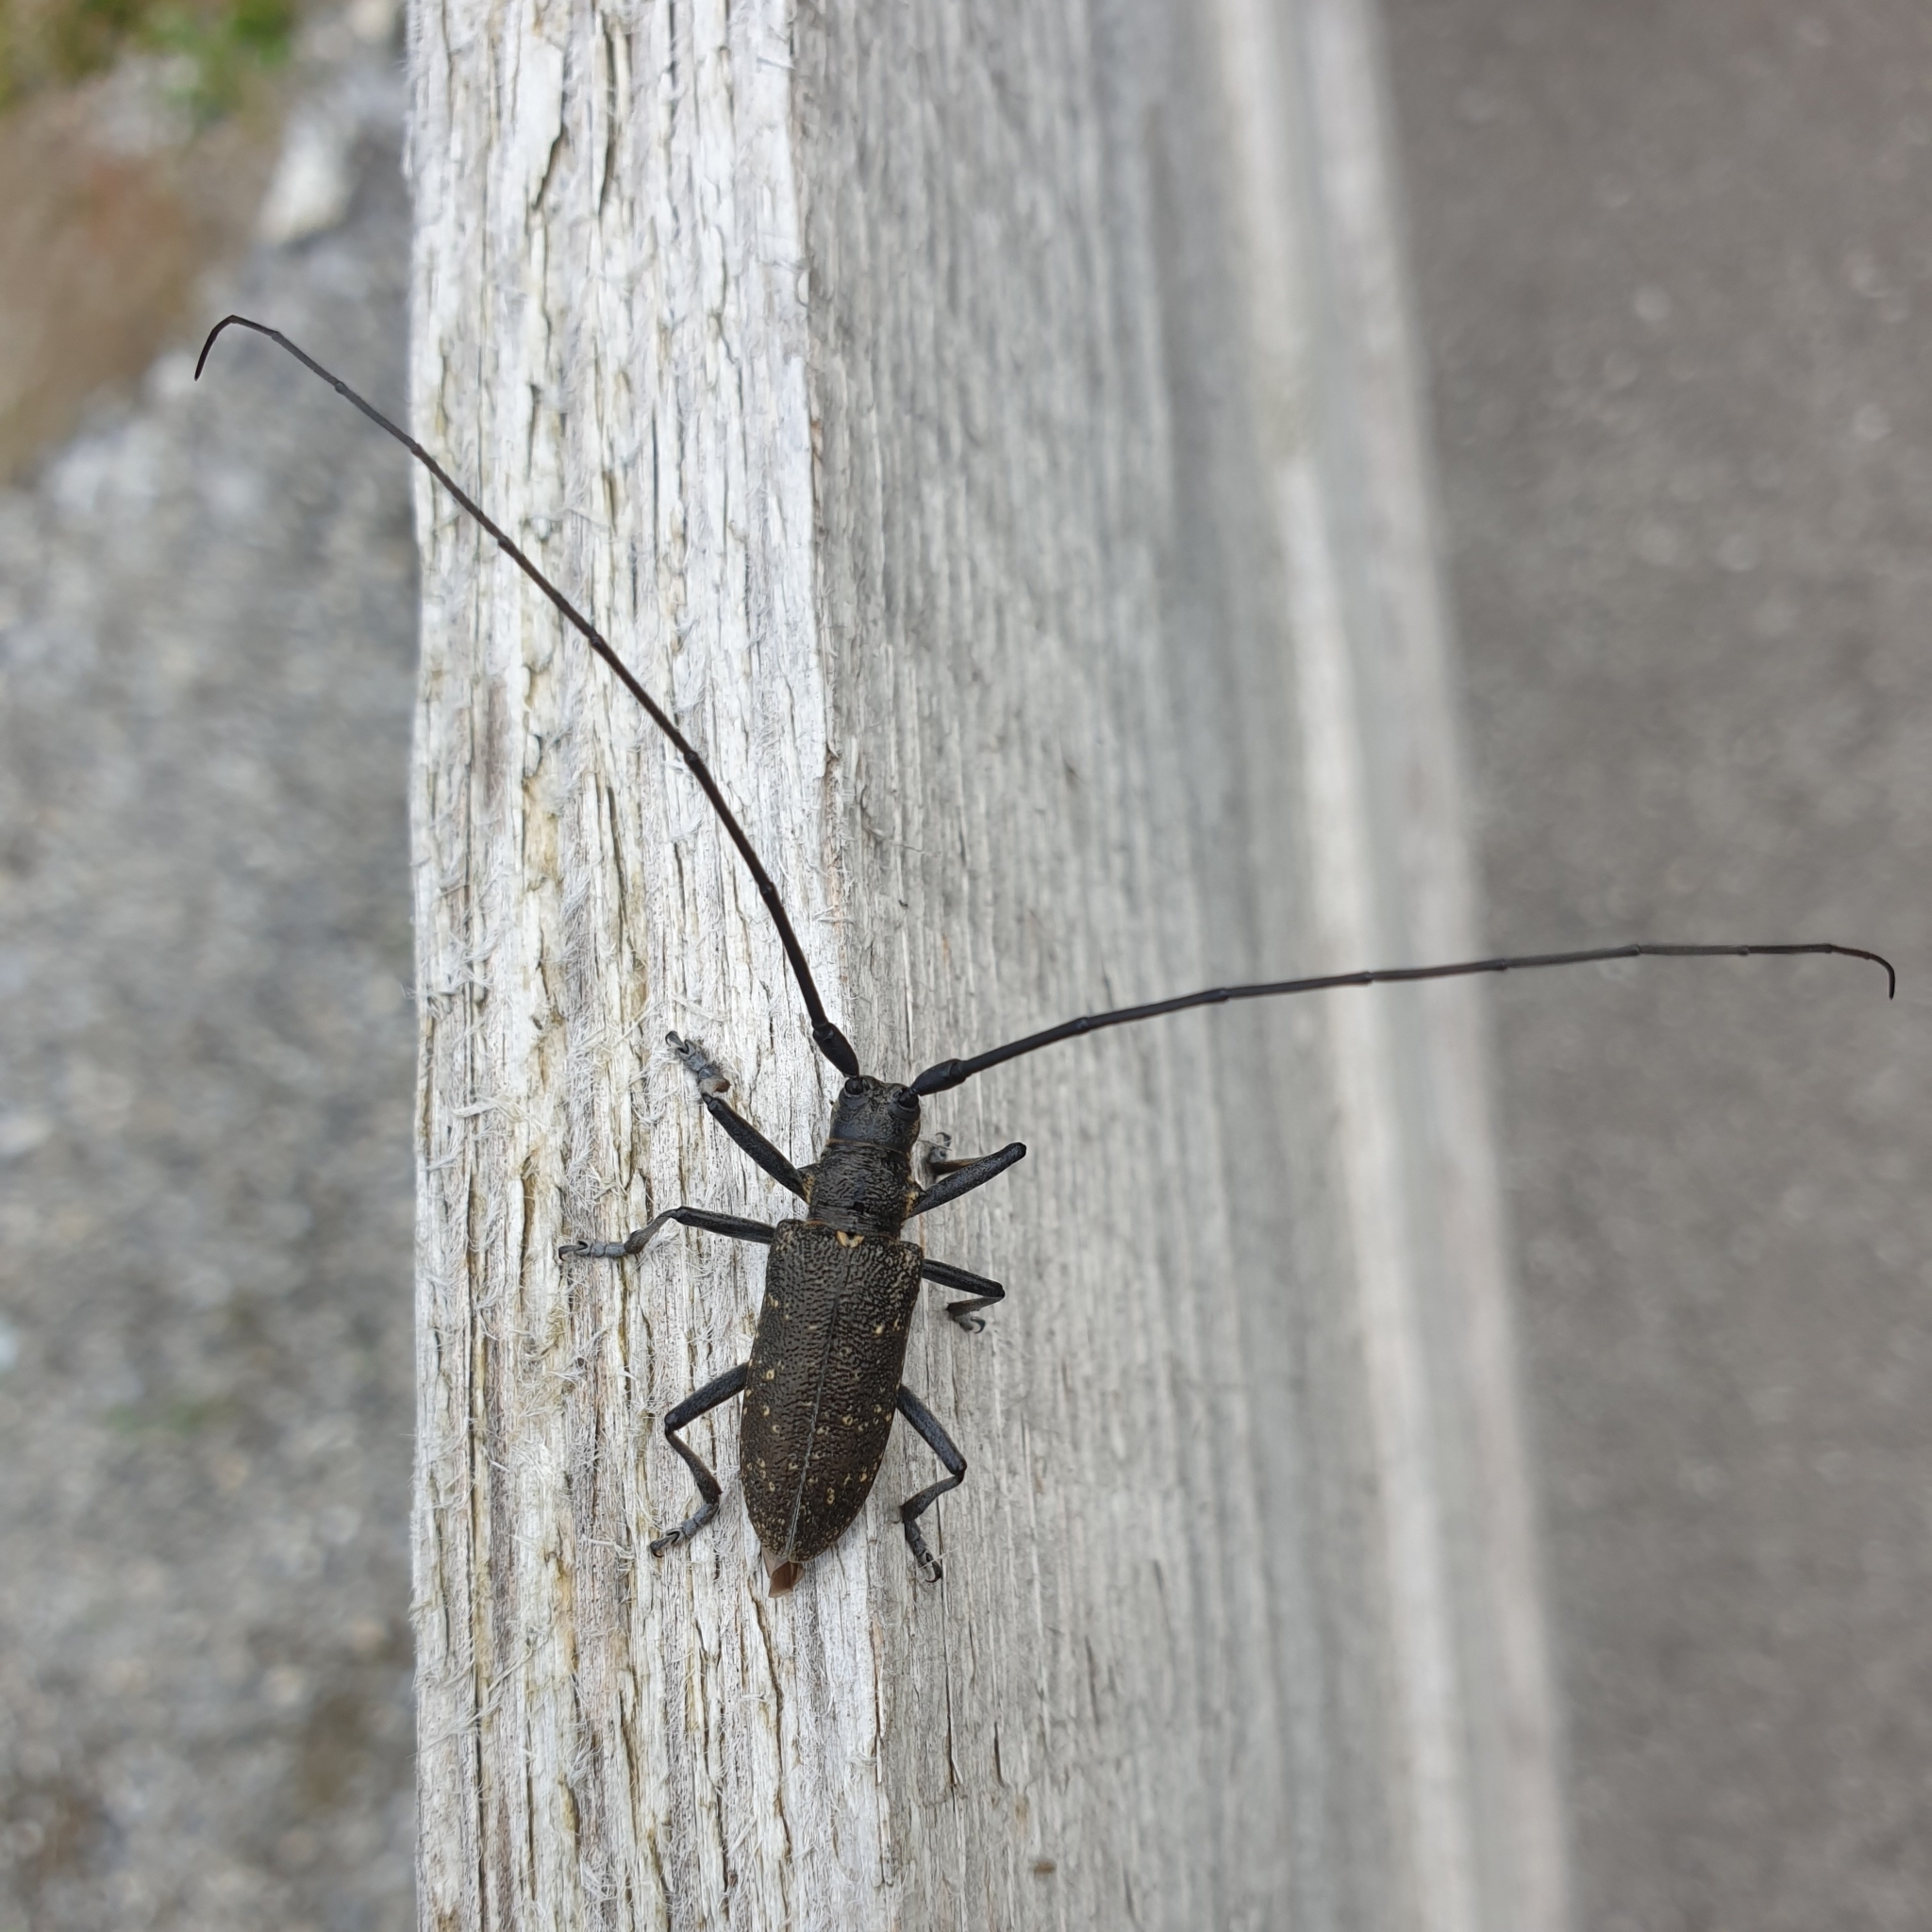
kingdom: Animalia
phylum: Arthropoda
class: Insecta
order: Coleoptera
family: Cerambycidae
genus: Monochamus
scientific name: Monochamus sutor
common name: Pine sawyer
